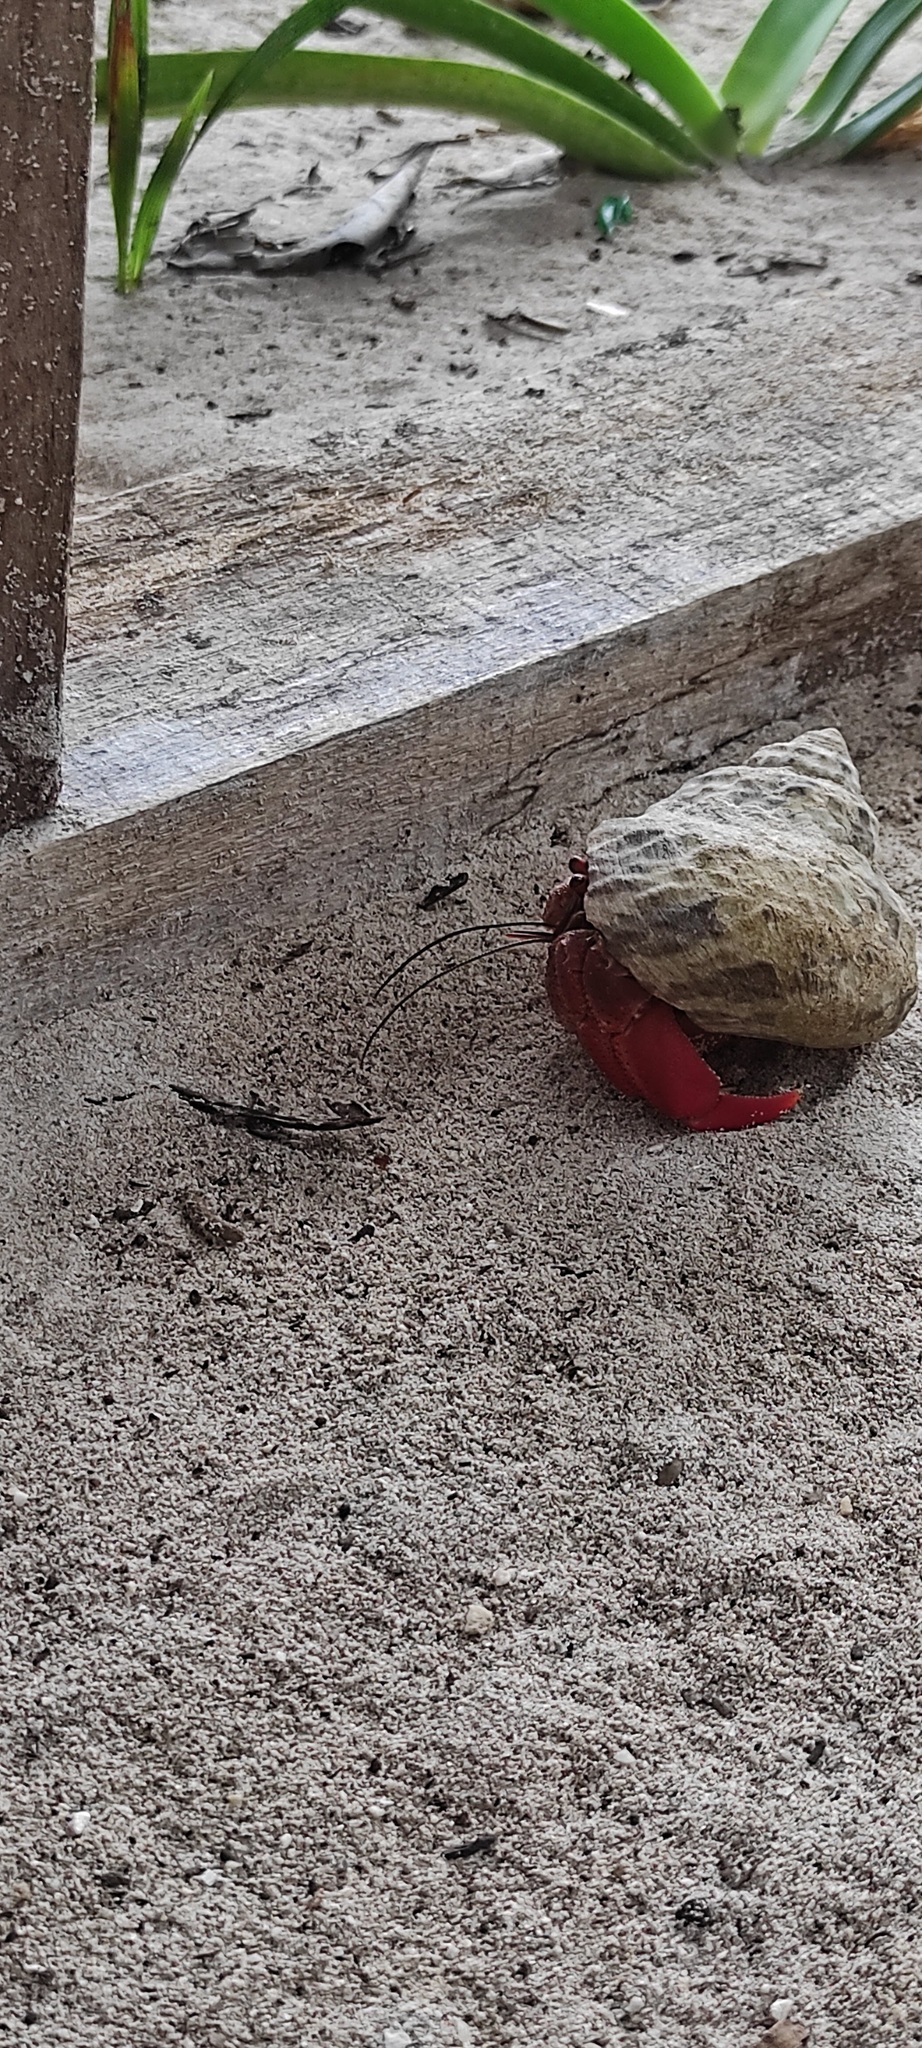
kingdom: Animalia
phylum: Arthropoda
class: Malacostraca
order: Decapoda
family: Coenobitidae
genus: Coenobita
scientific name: Coenobita clypeatus
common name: Caribbean hermit crab
